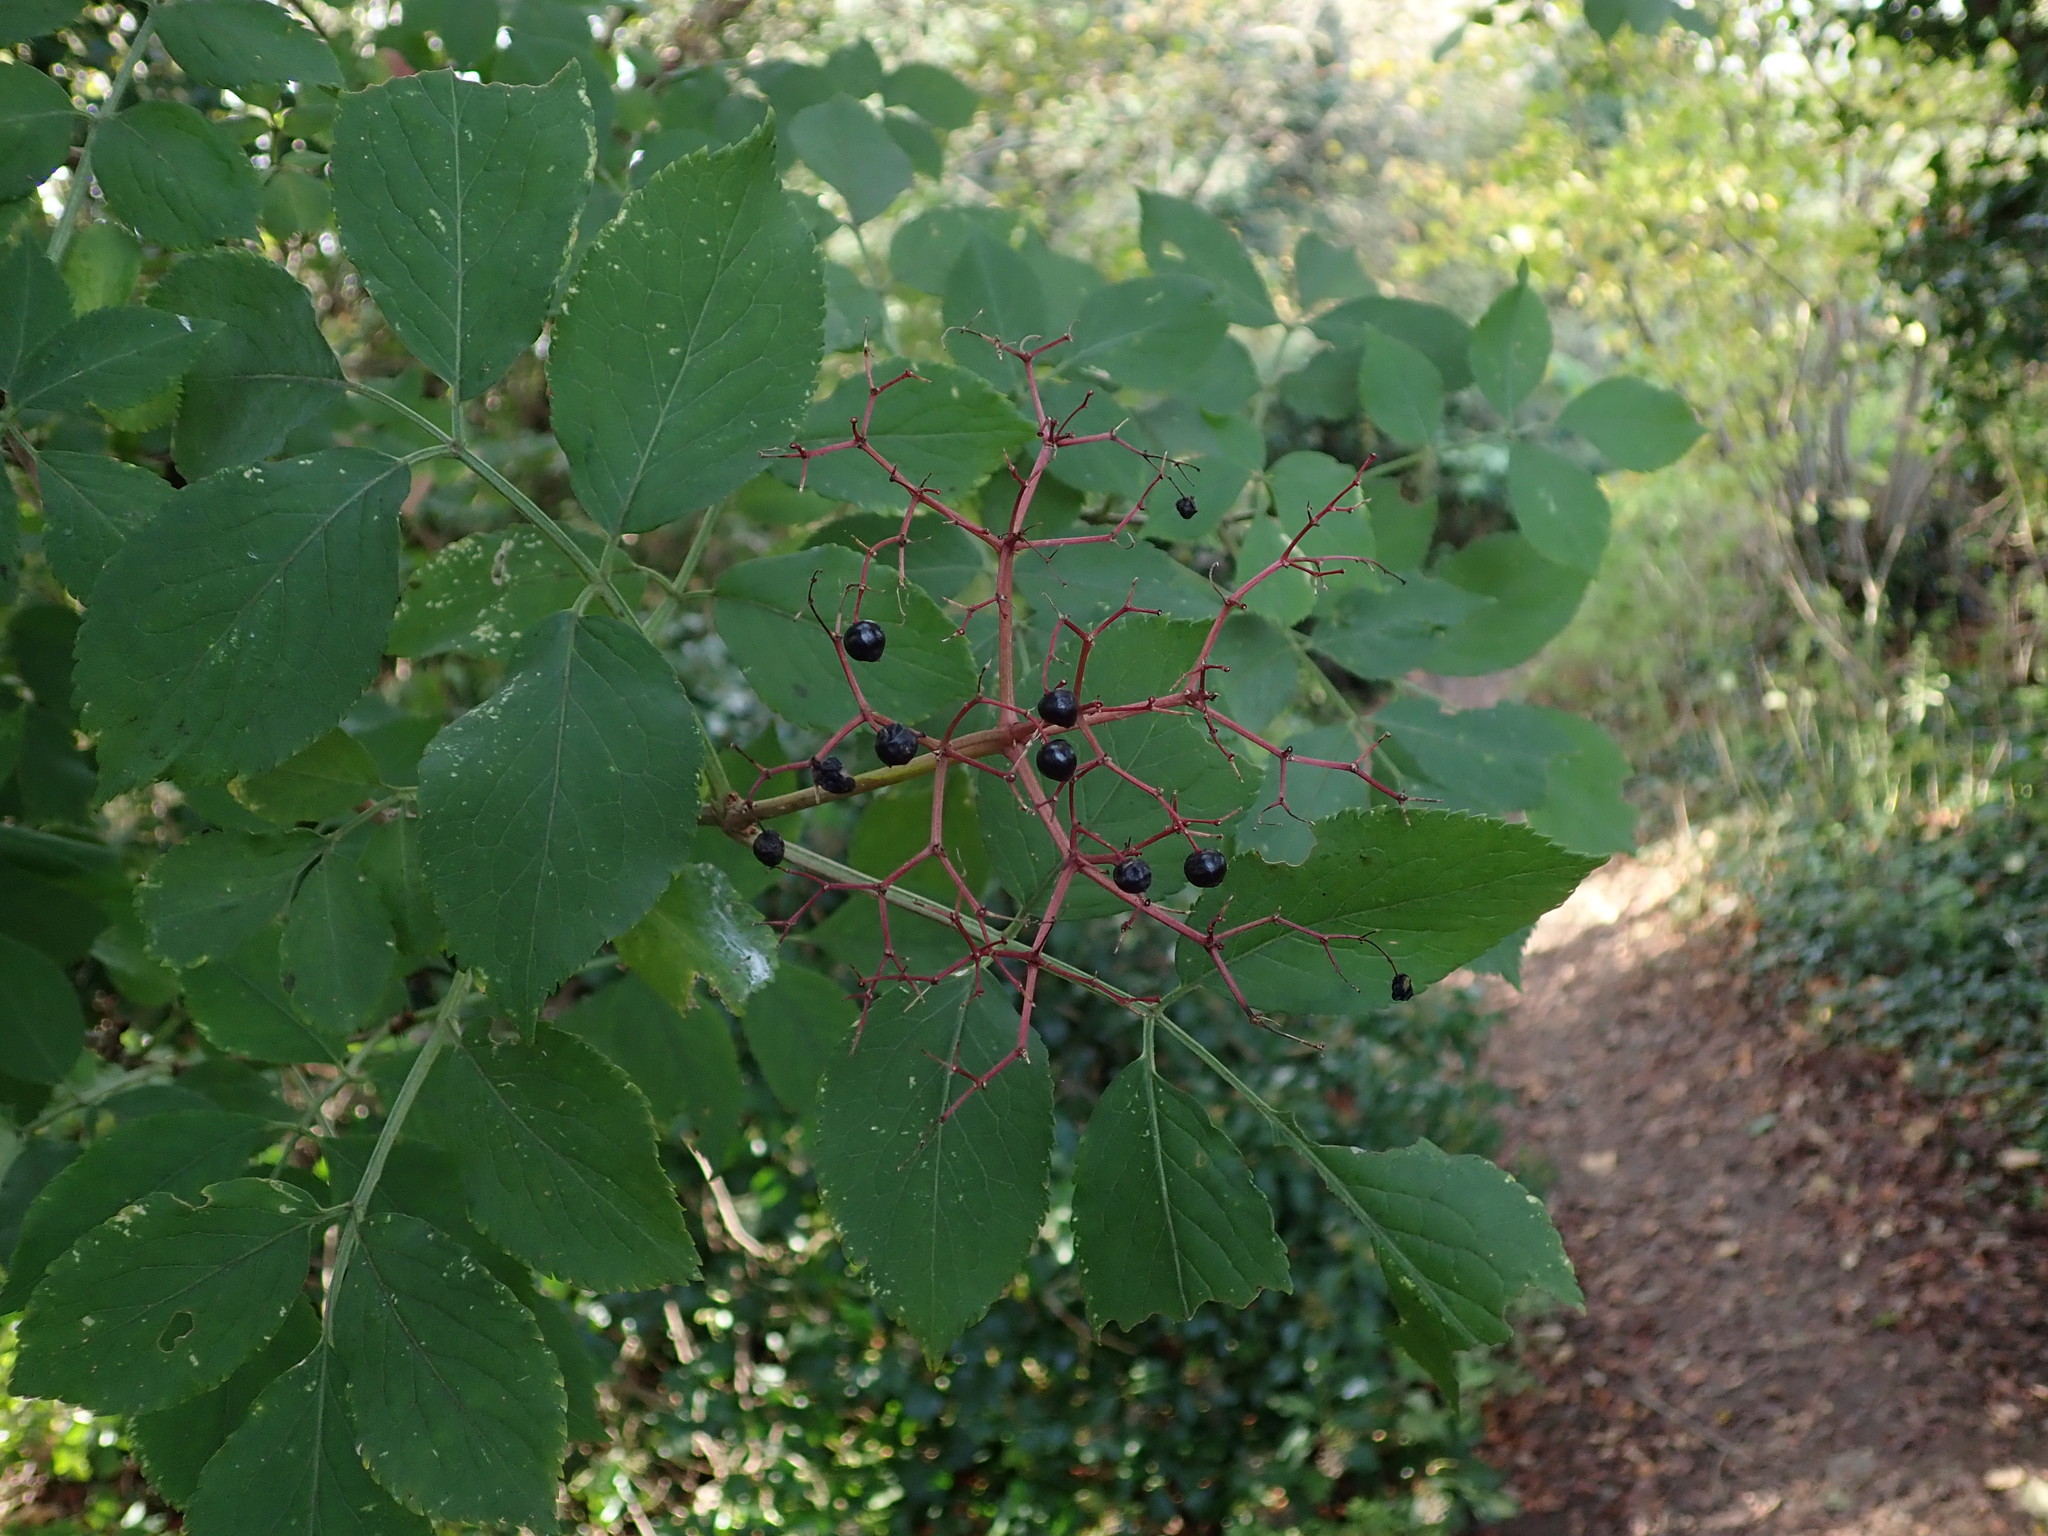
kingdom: Plantae
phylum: Tracheophyta
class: Magnoliopsida
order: Dipsacales
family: Viburnaceae
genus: Sambucus
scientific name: Sambucus nigra
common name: Elder
